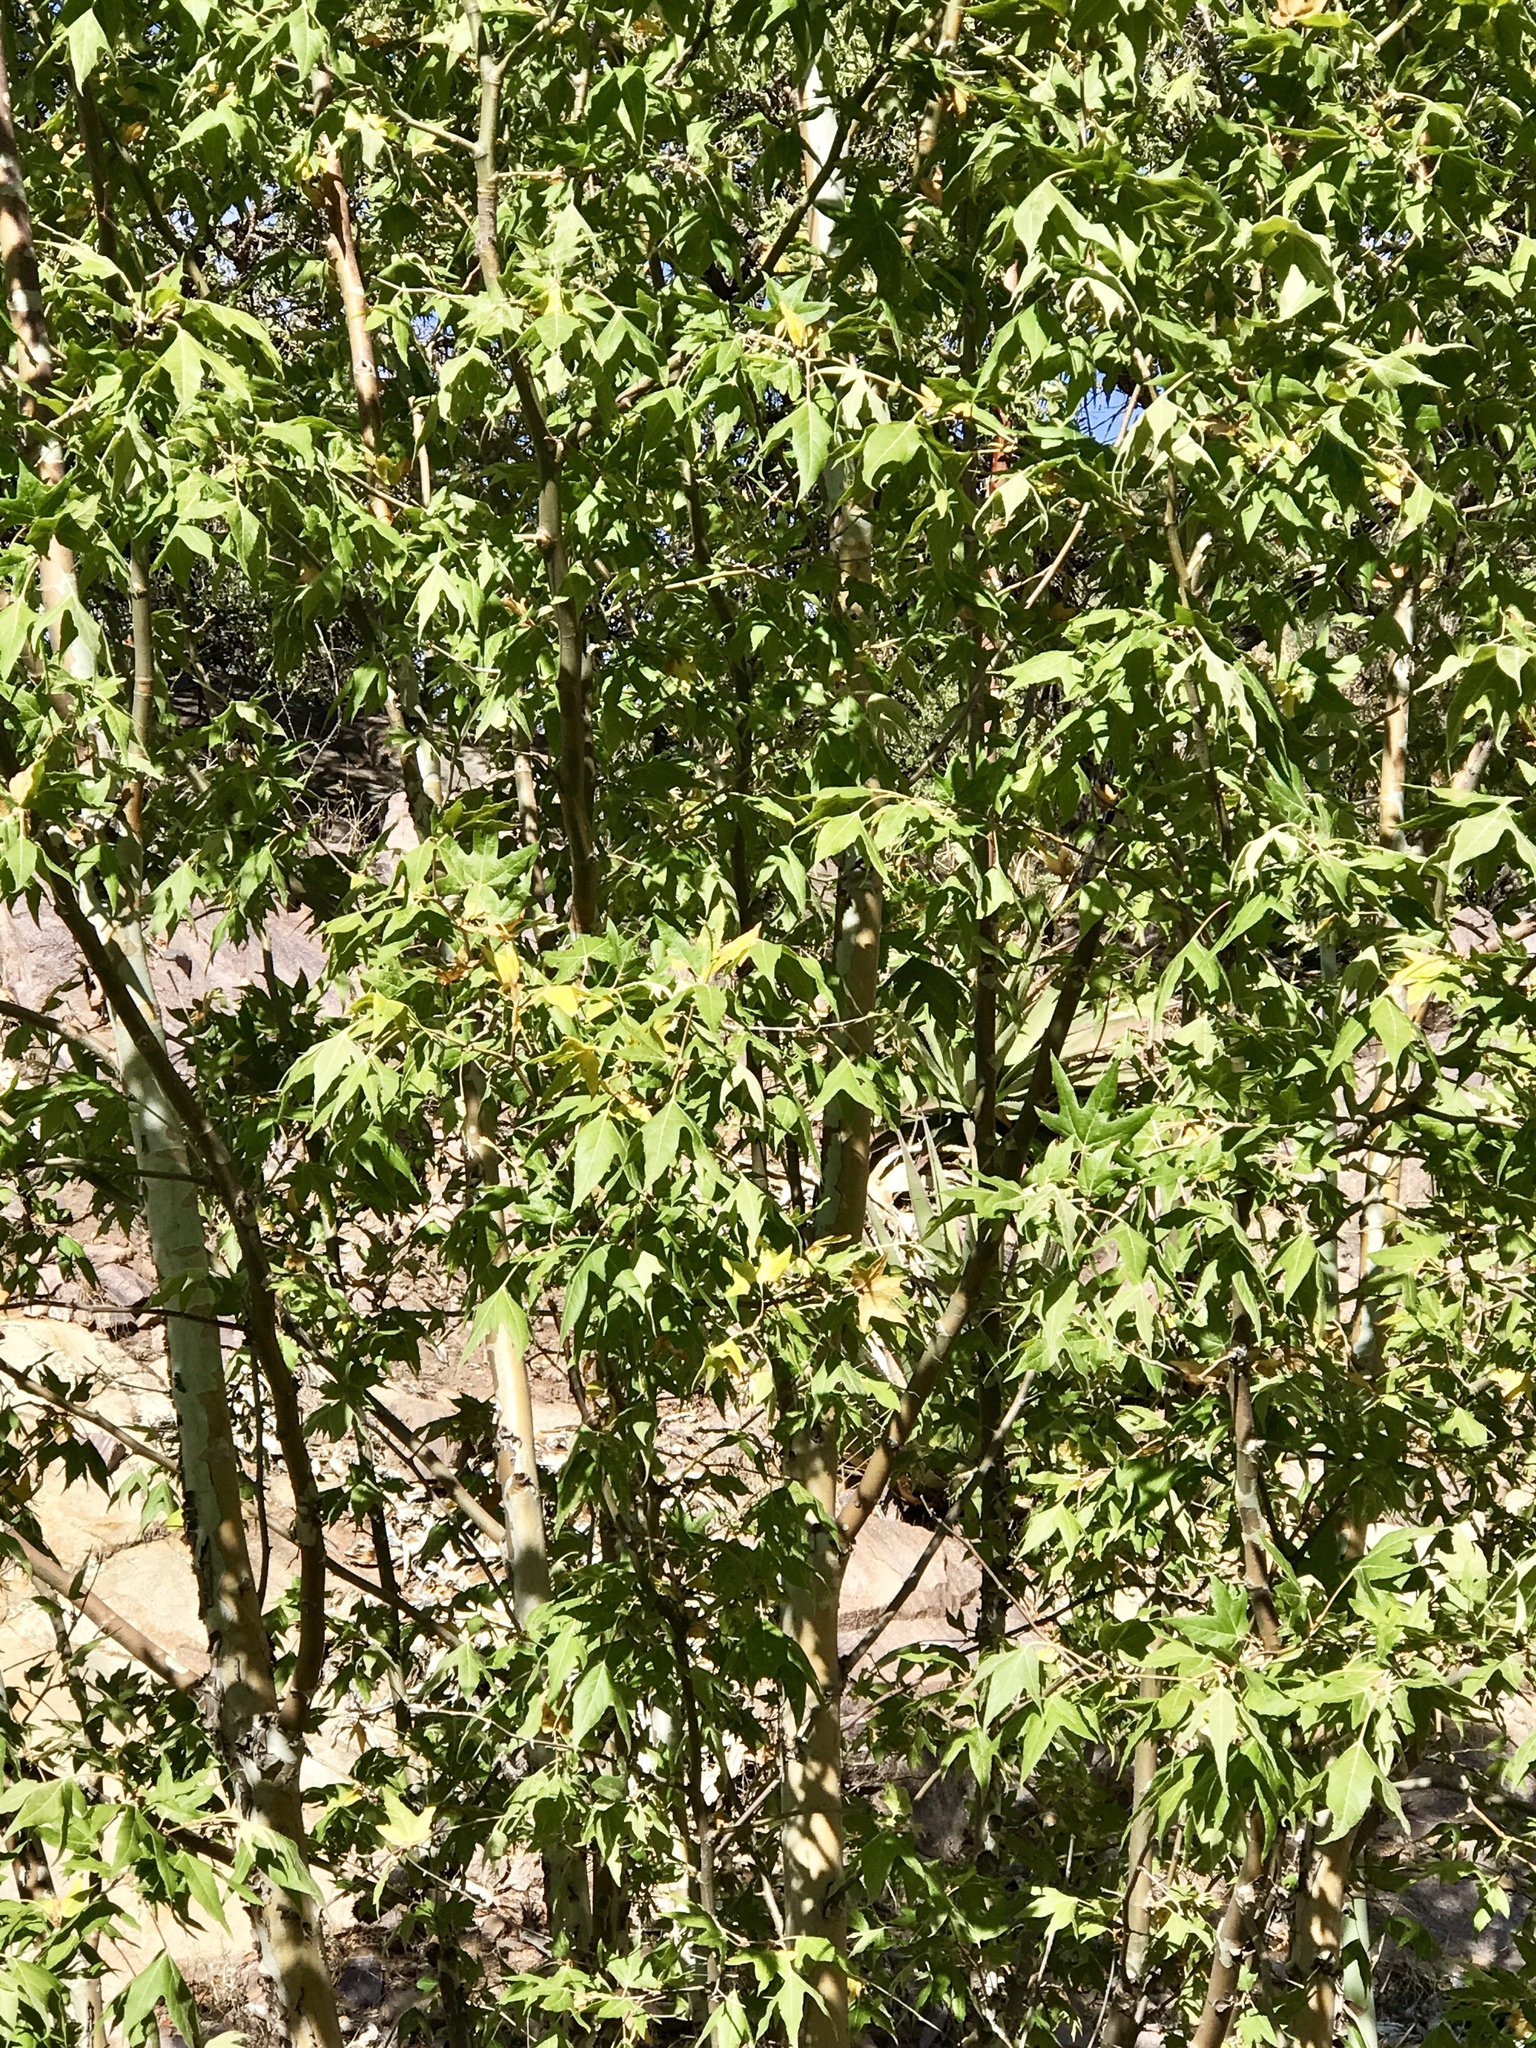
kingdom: Plantae
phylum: Tracheophyta
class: Magnoliopsida
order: Proteales
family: Platanaceae
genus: Platanus
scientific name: Platanus wrightii
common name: Arizona sycamore
